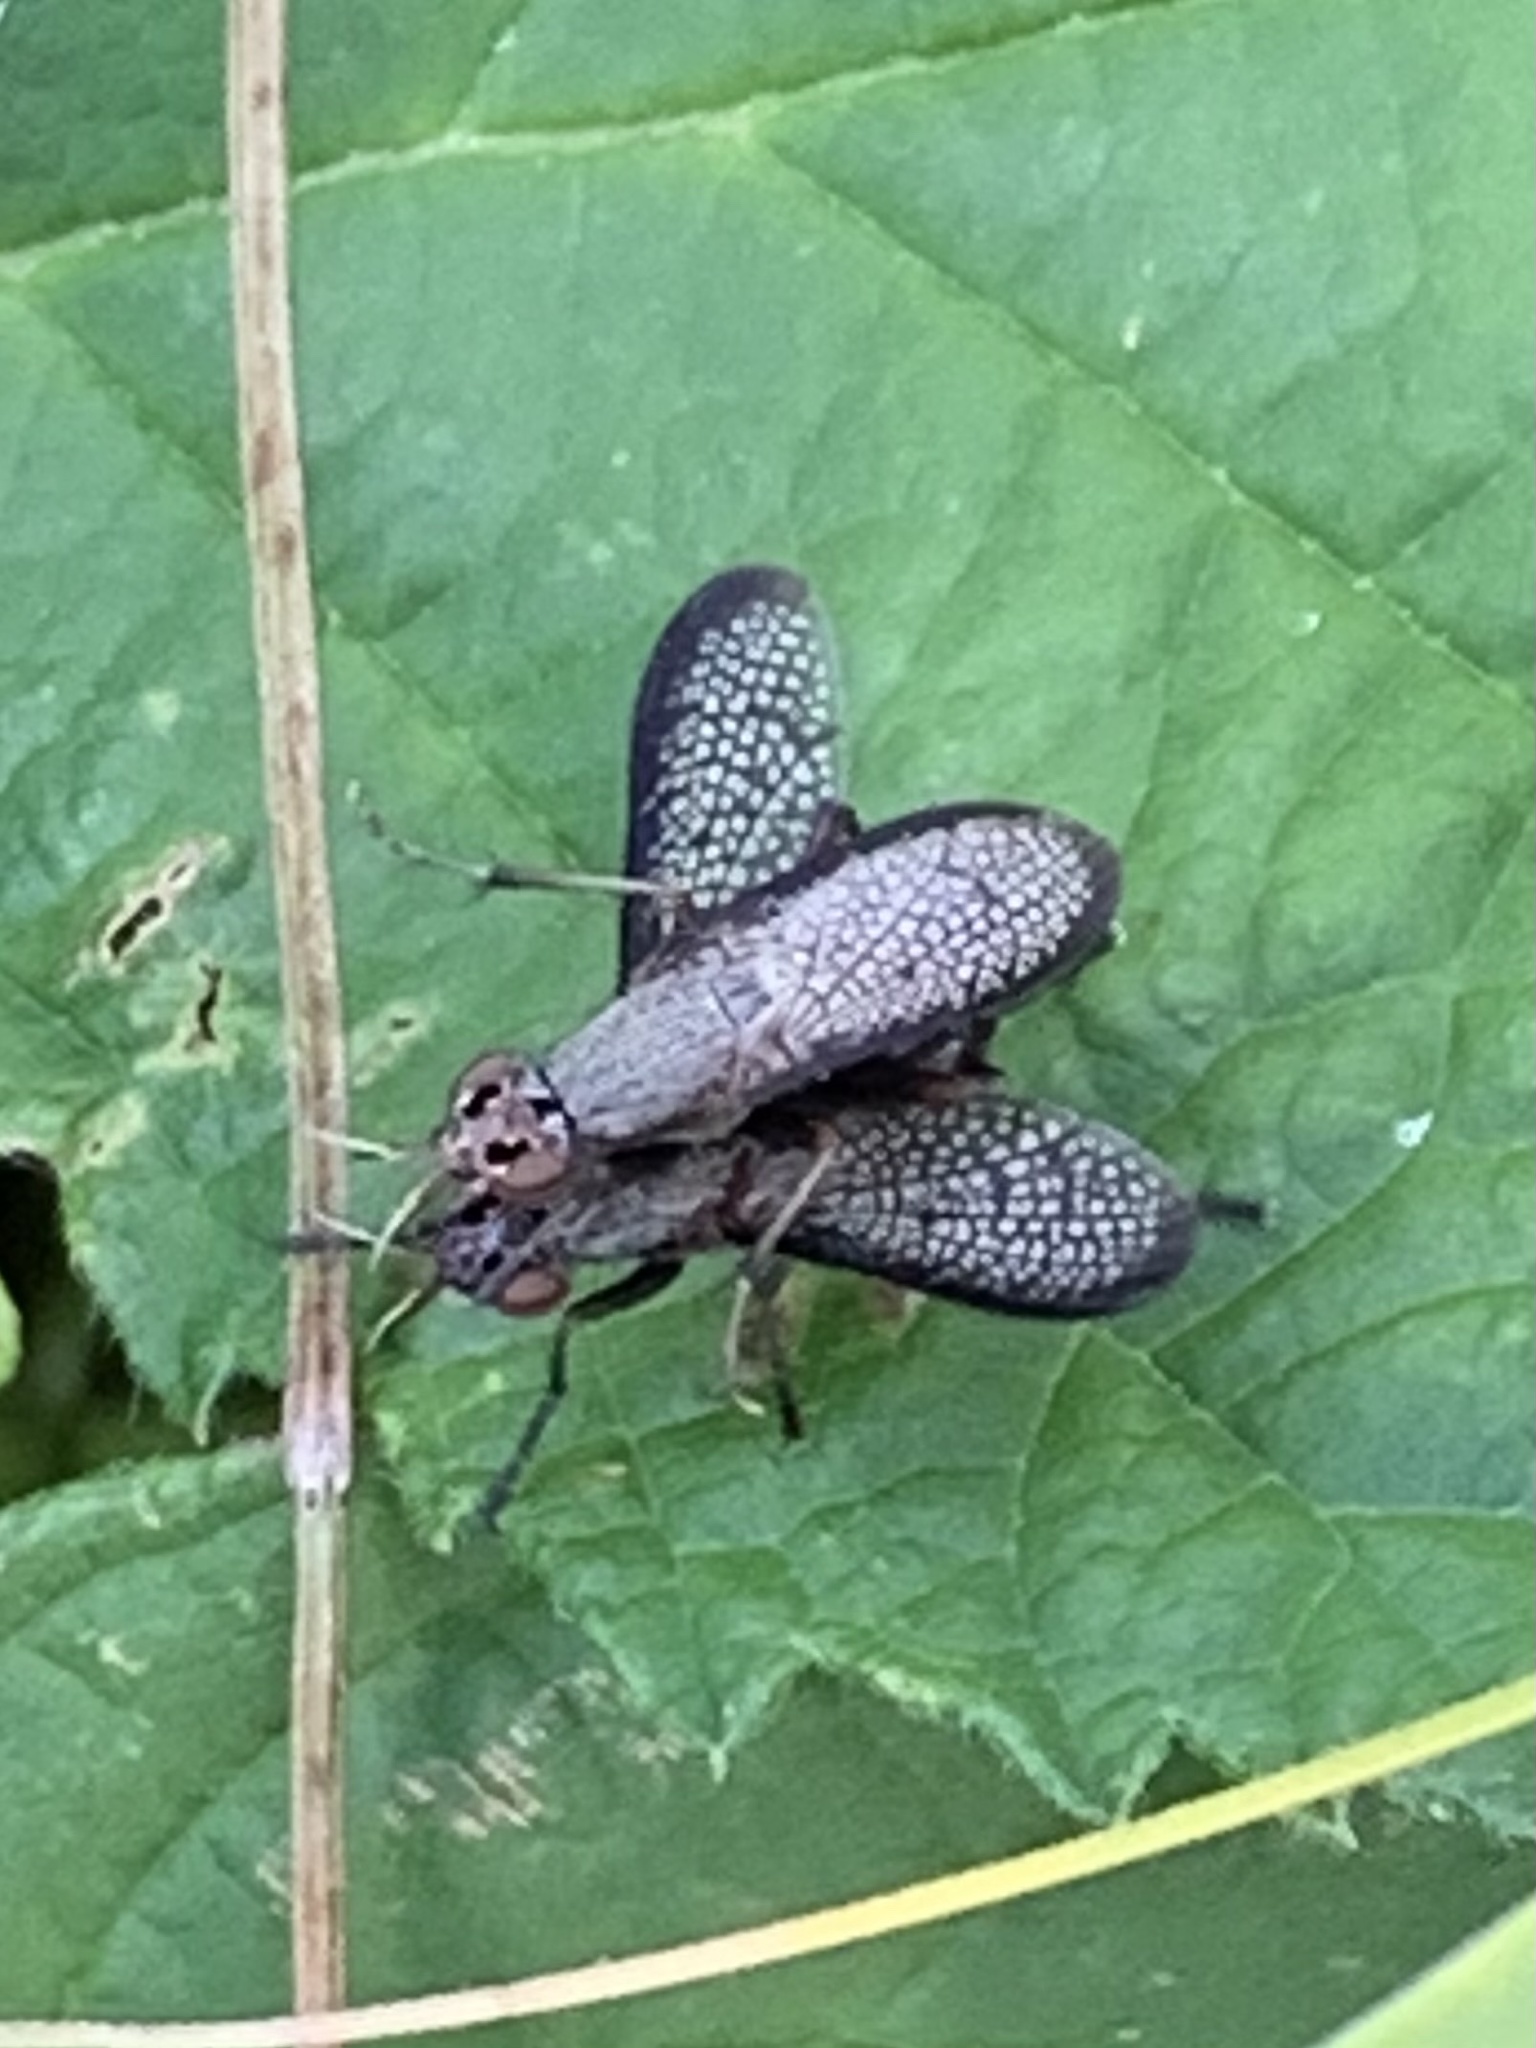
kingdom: Animalia
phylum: Arthropoda
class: Insecta
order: Diptera
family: Sciomyzidae
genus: Coremacera
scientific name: Coremacera marginata
